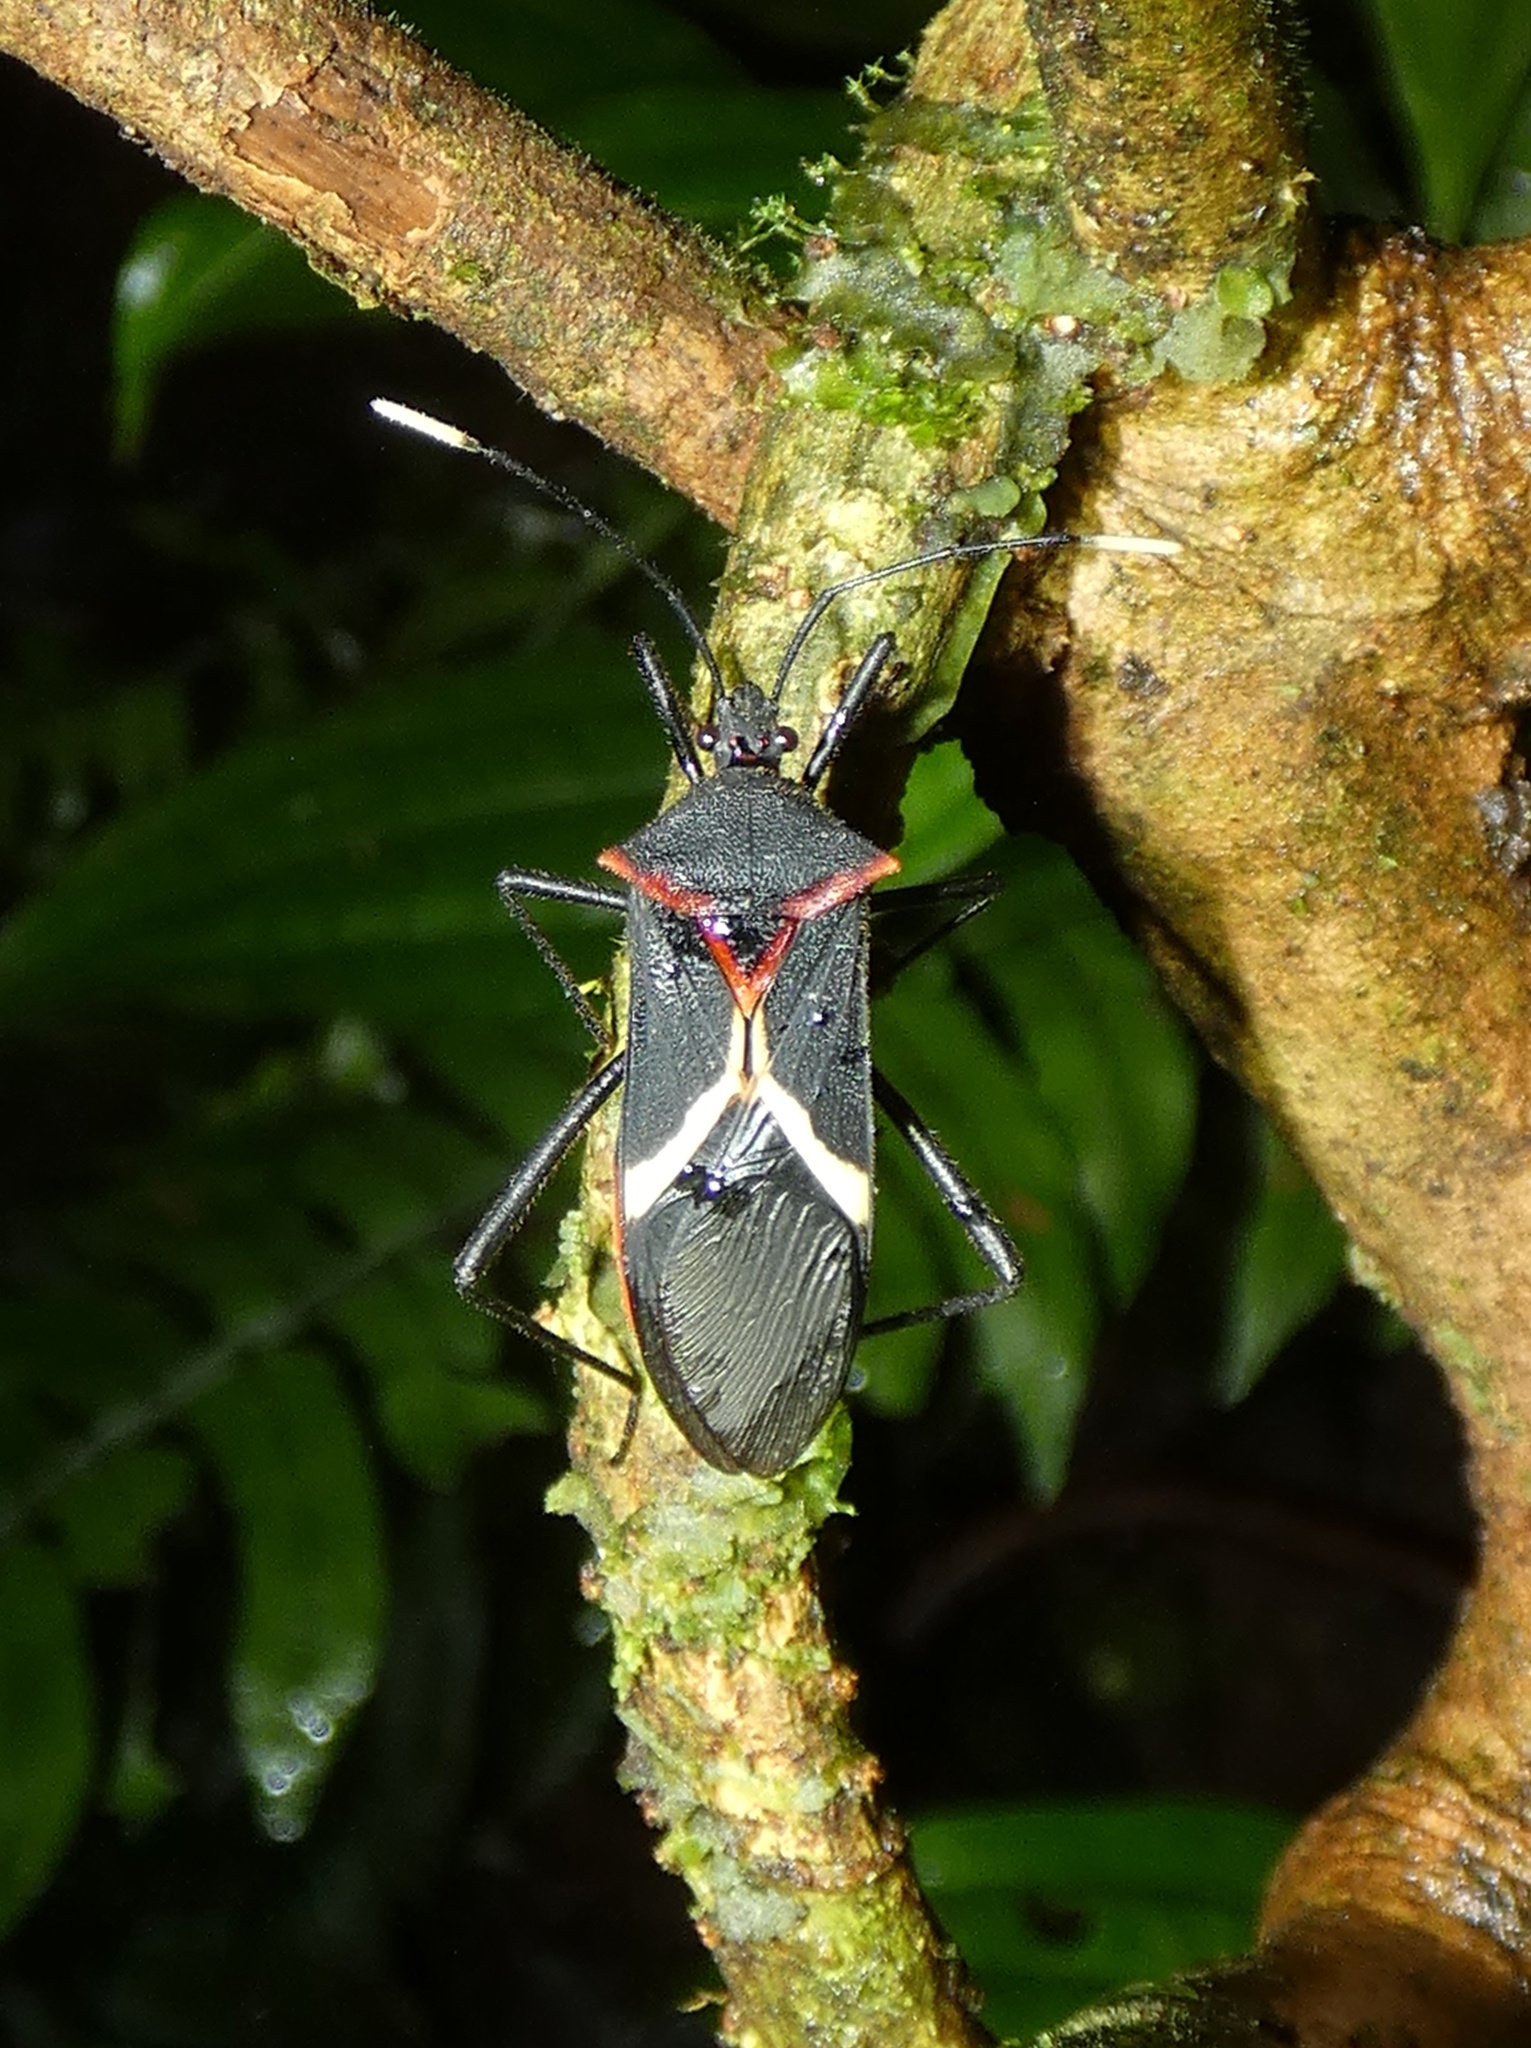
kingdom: Animalia
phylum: Arthropoda
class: Insecta
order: Hemiptera
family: Coreidae
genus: Leptoscelis
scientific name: Leptoscelis conspicuus
